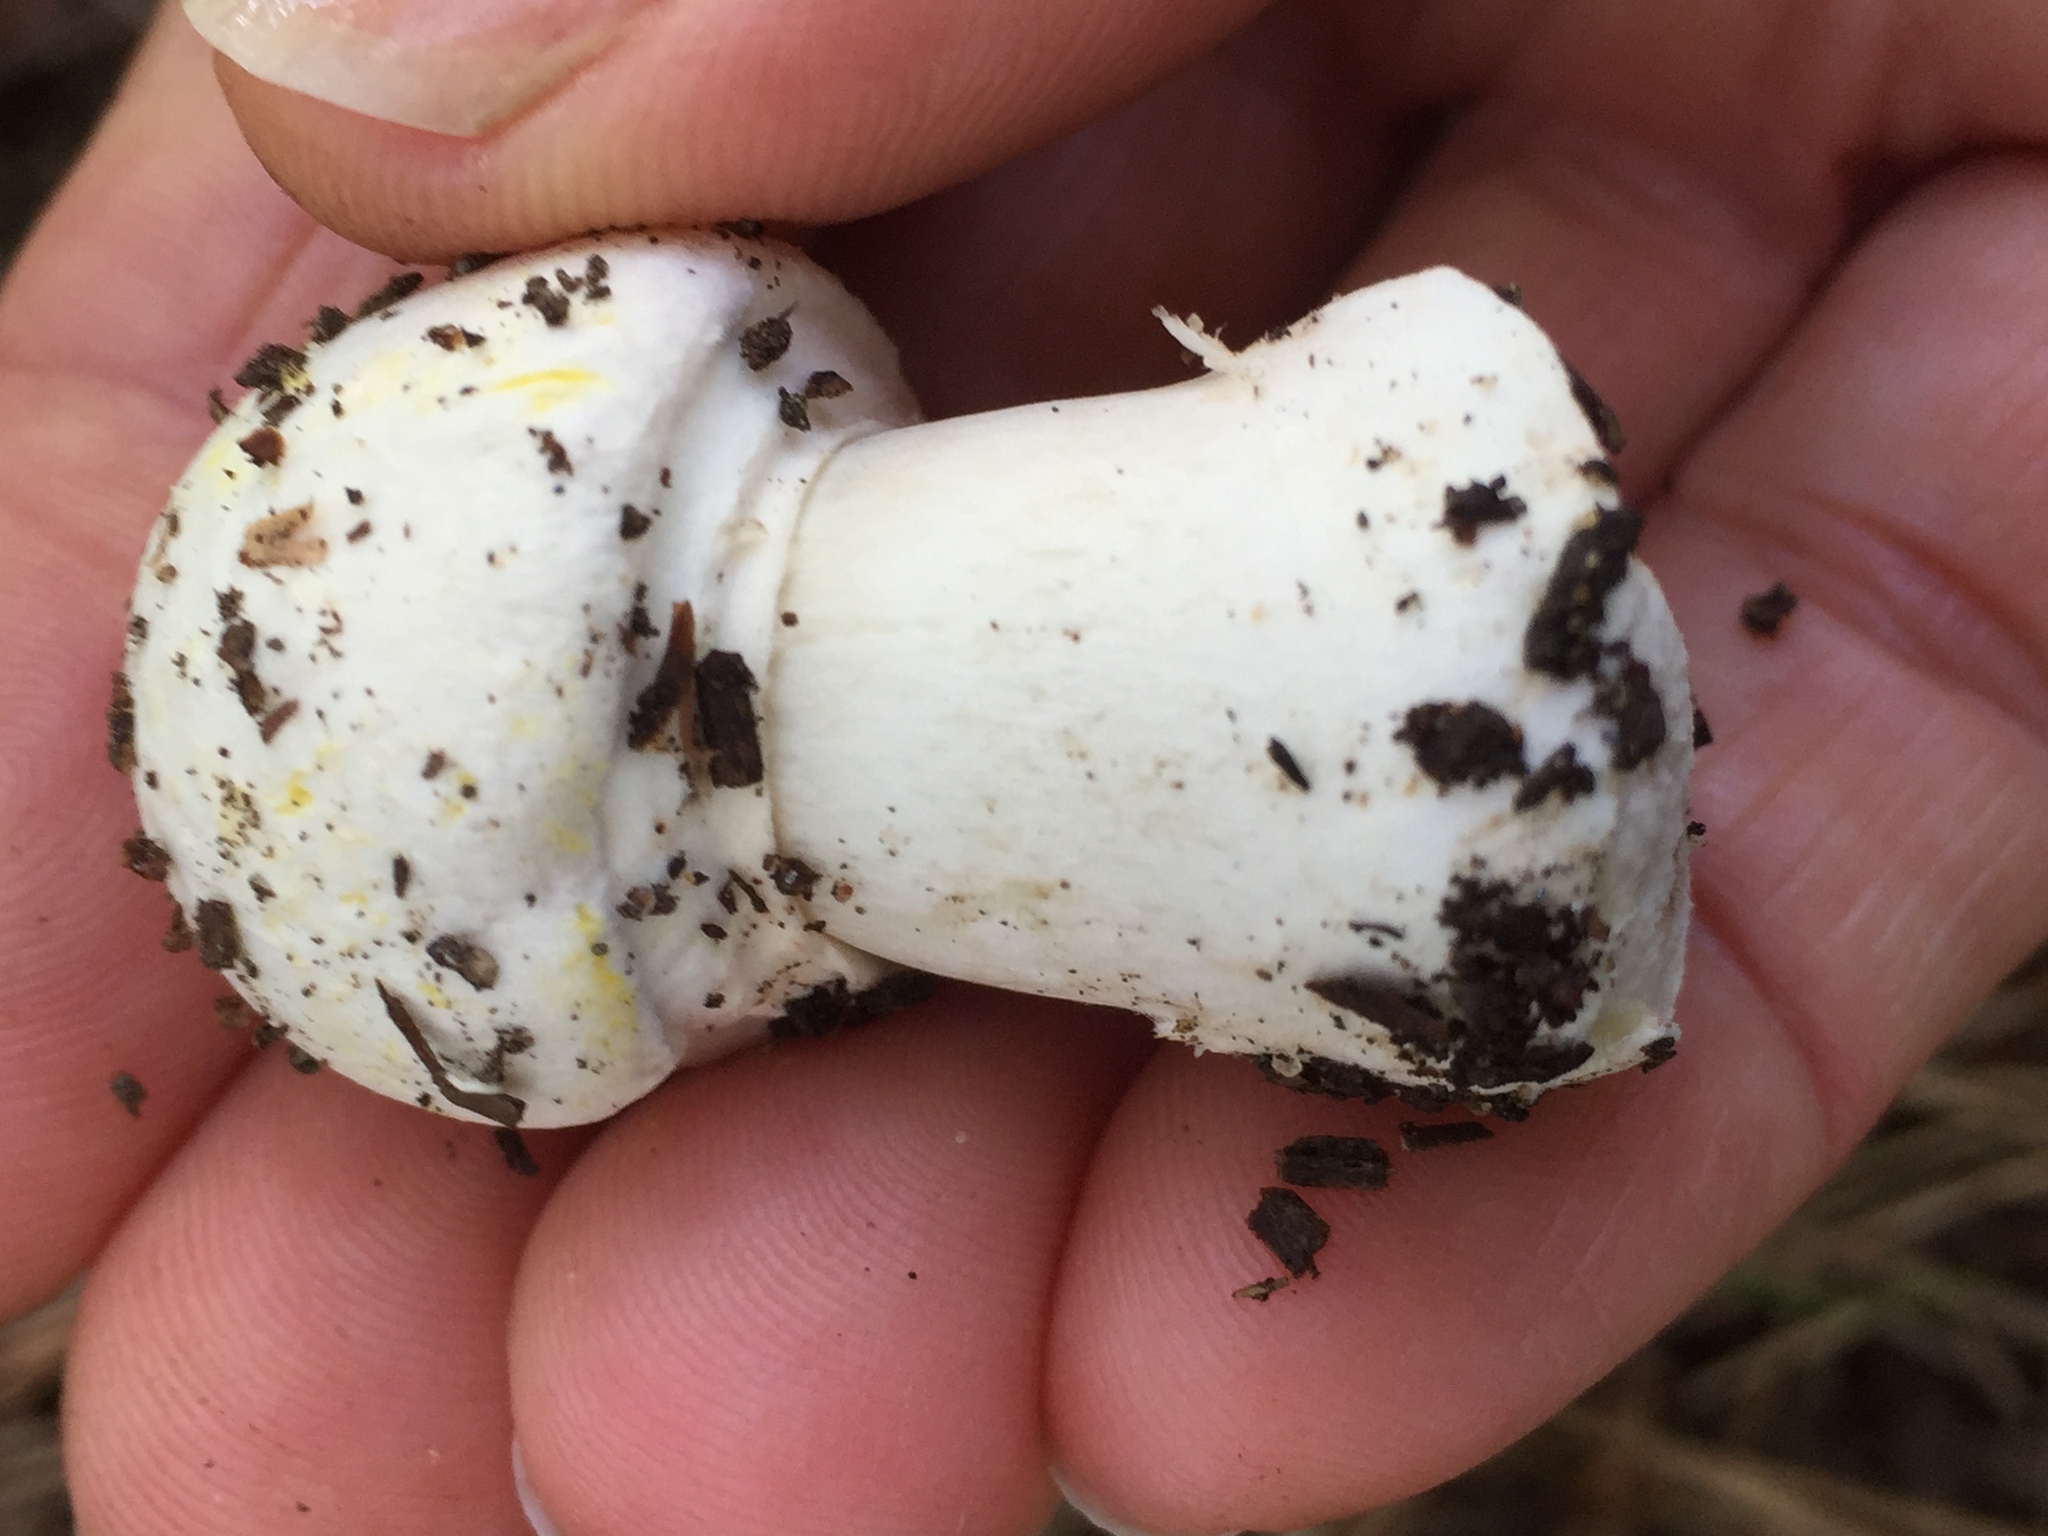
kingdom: Fungi
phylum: Basidiomycota
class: Agaricomycetes
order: Agaricales
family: Agaricaceae
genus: Agaricus
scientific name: Agaricus xanthodermus
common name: Yellow stainer
